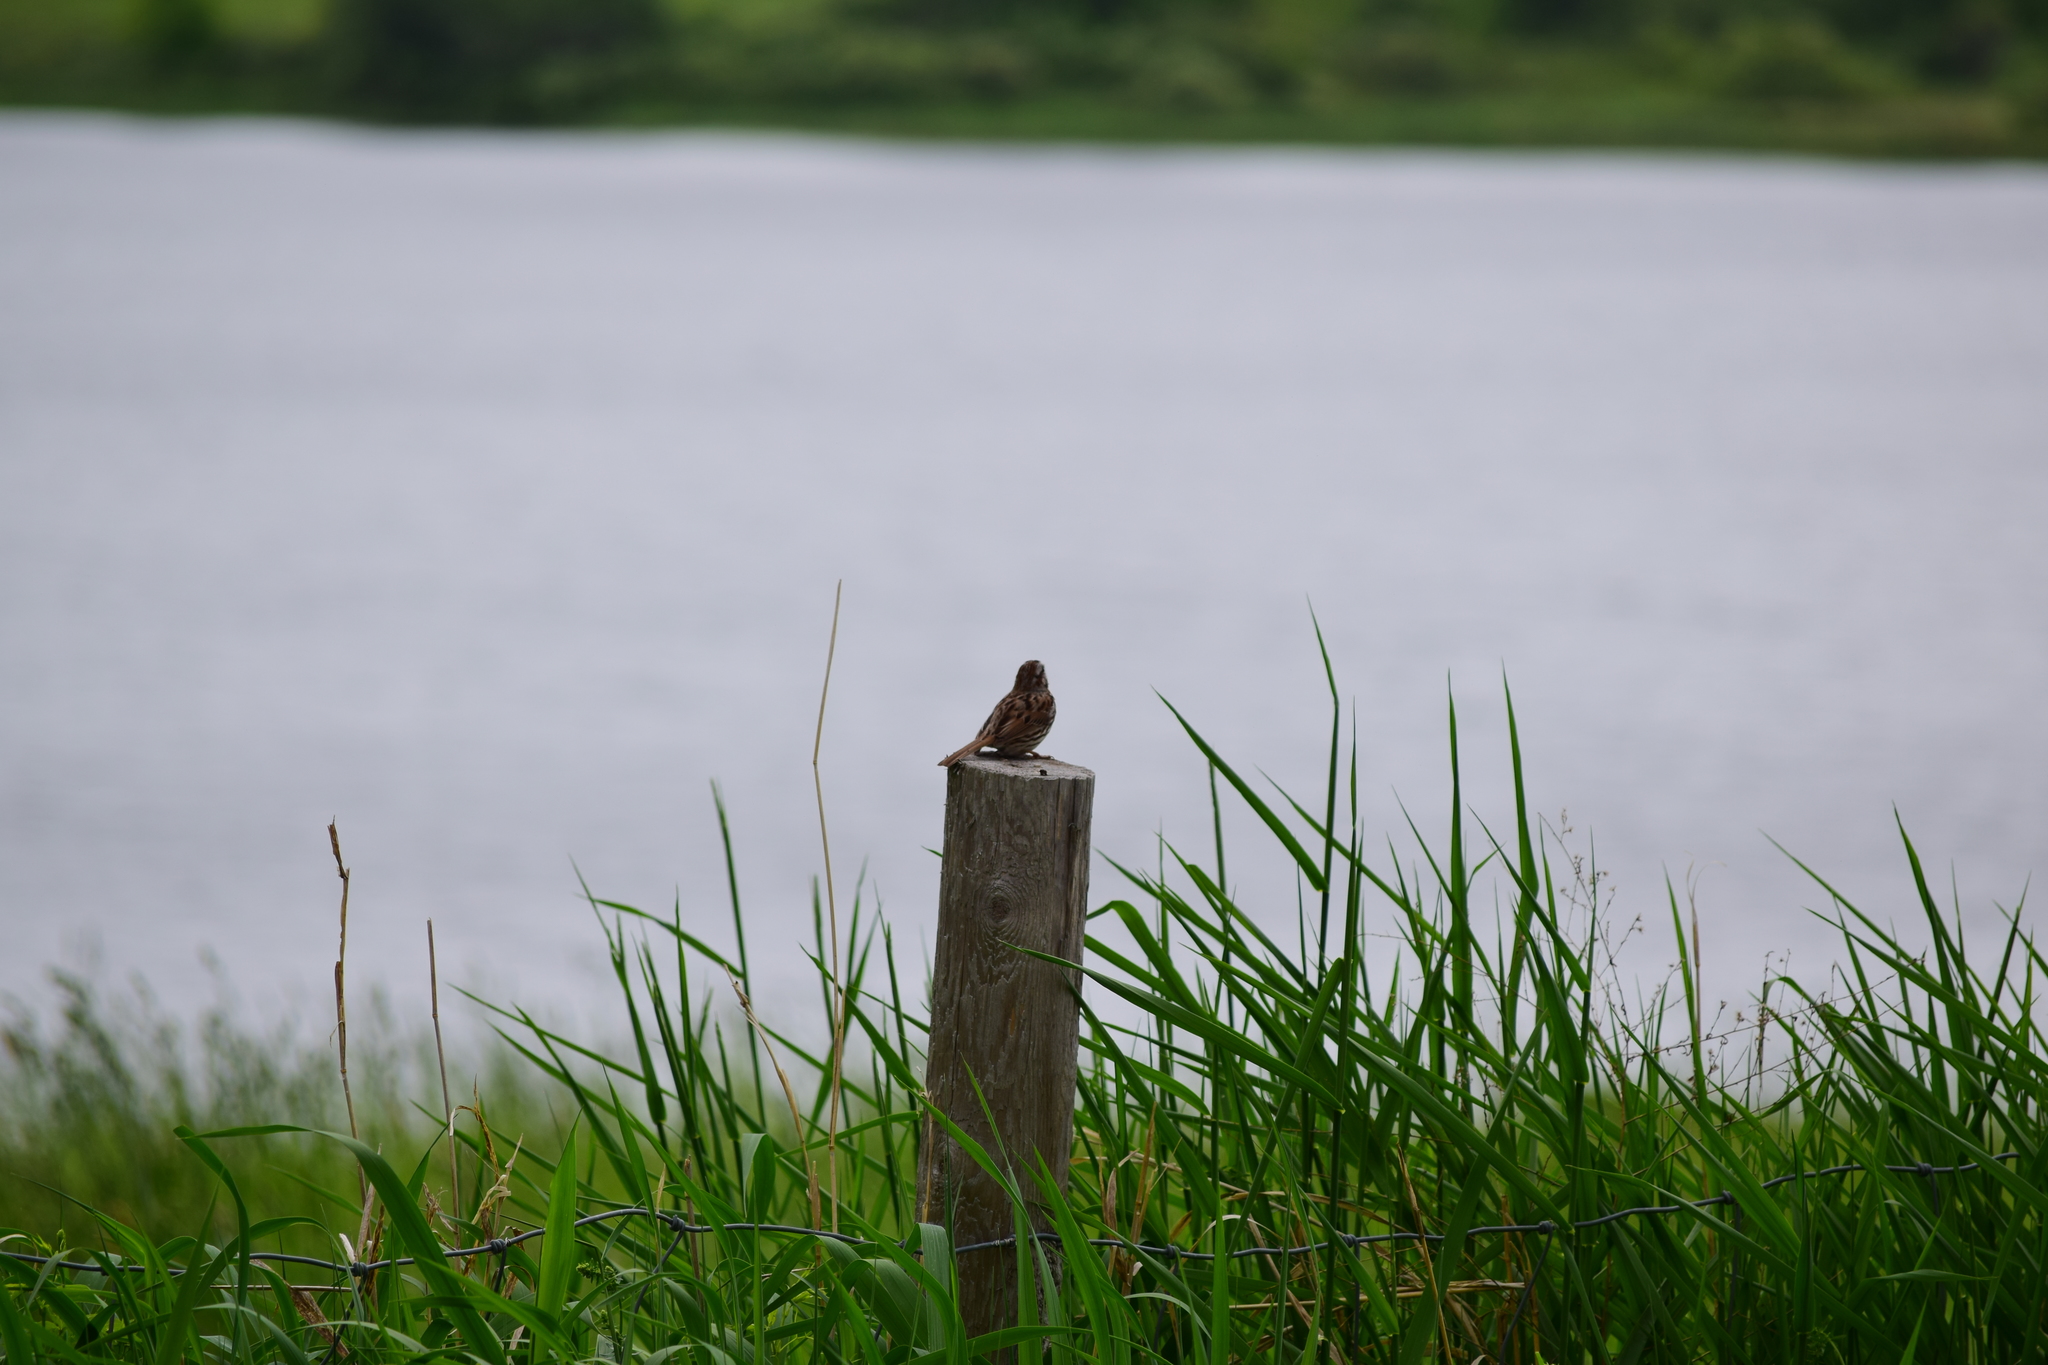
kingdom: Animalia
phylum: Chordata
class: Aves
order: Passeriformes
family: Passerellidae
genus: Melospiza
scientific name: Melospiza melodia
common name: Song sparrow
